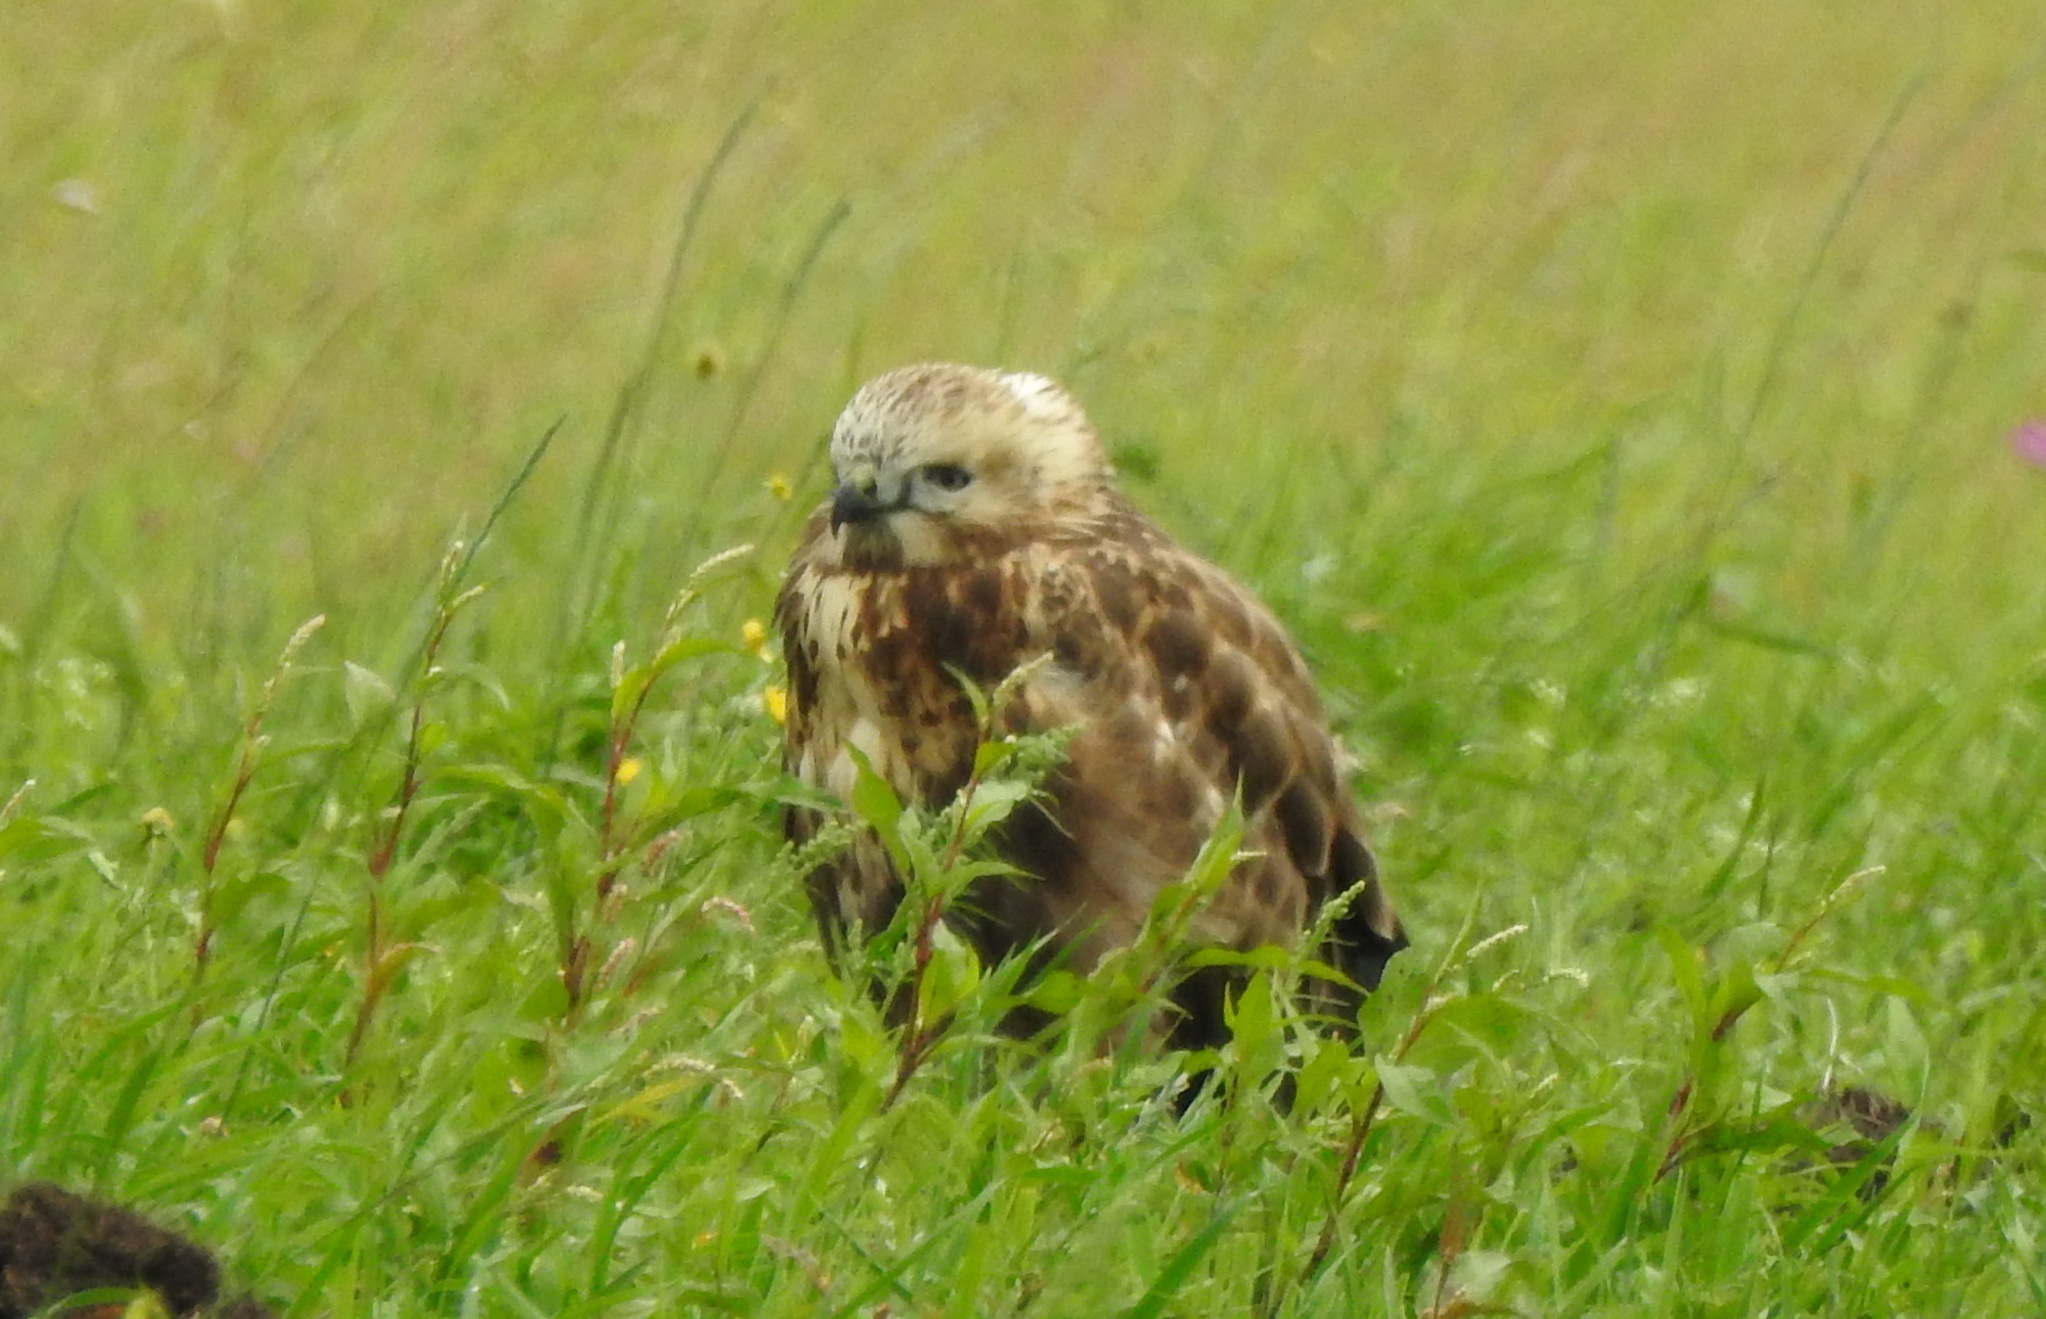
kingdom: Animalia
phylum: Chordata
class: Aves
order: Accipitriformes
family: Accipitridae
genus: Buteo
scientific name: Buteo hemilasius
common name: Upland buzzard
